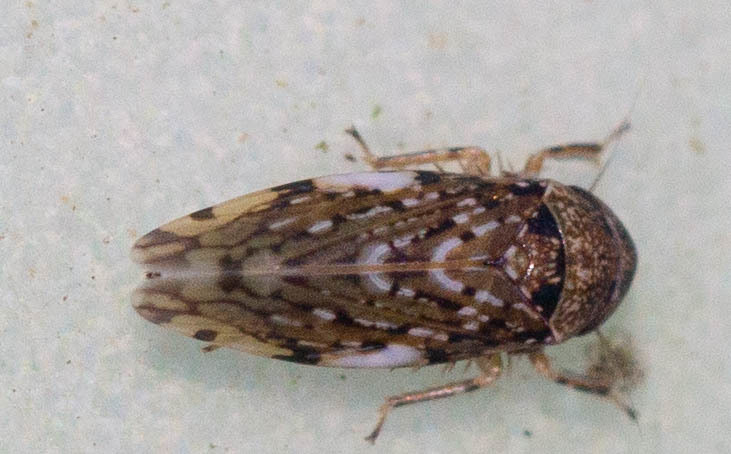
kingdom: Animalia
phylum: Arthropoda
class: Insecta
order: Hemiptera
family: Cicadellidae
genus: Xestocephalus
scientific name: Xestocephalus tessellatus
